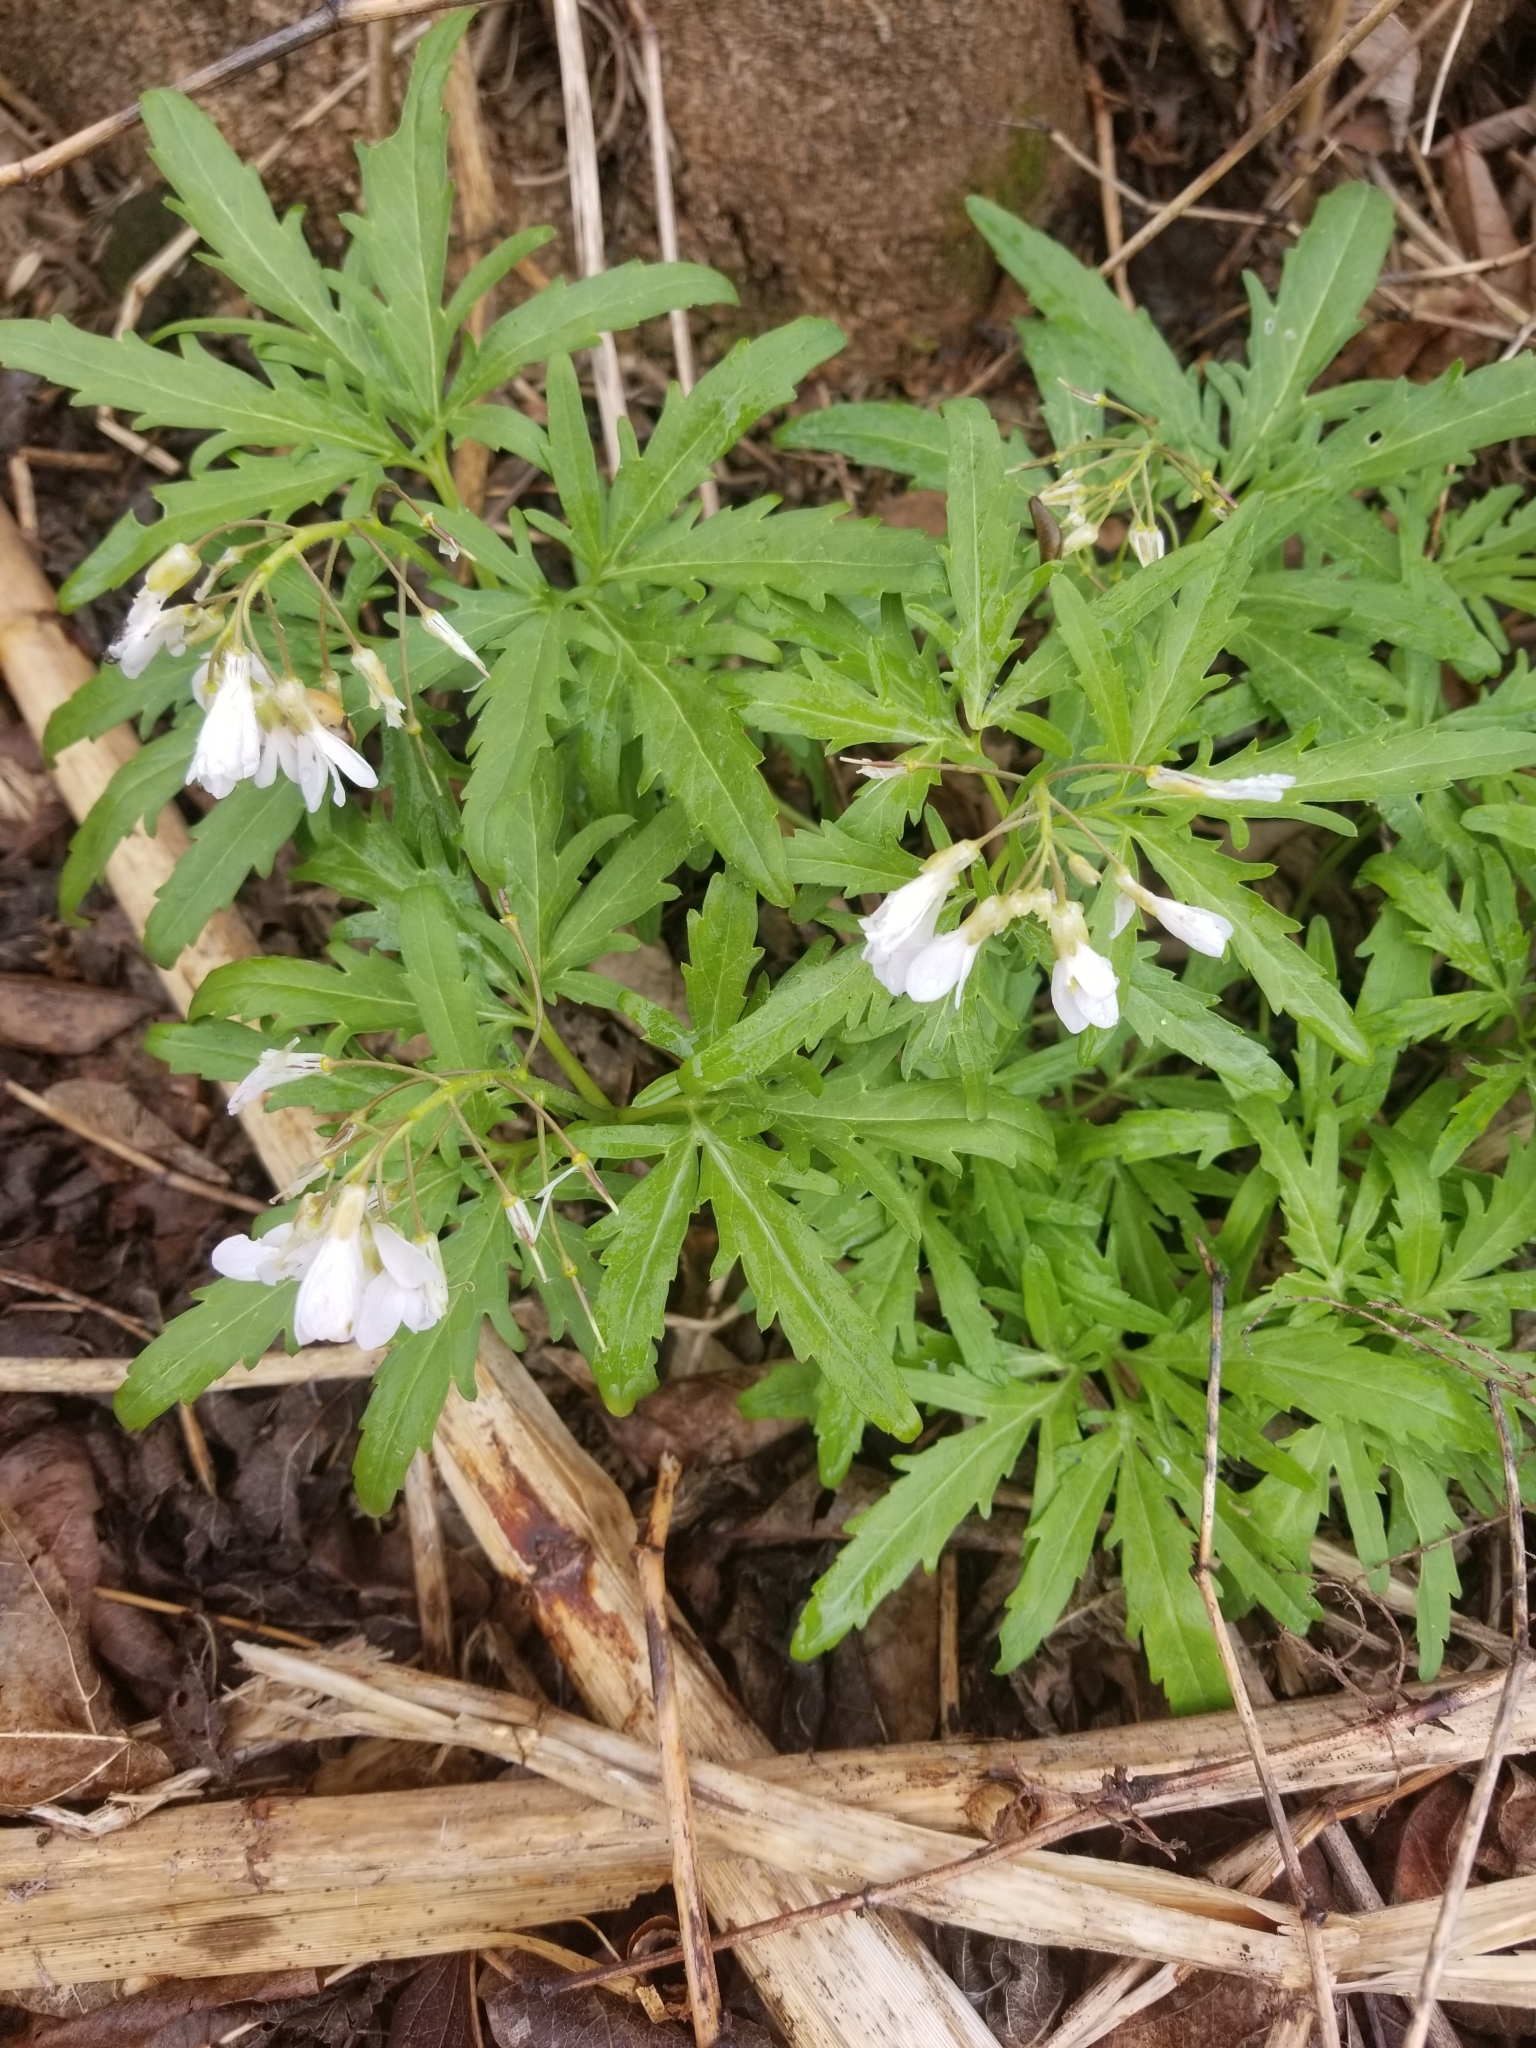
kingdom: Plantae
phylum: Tracheophyta
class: Magnoliopsida
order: Brassicales
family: Brassicaceae
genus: Cardamine
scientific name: Cardamine concatenata
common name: Cut-leaf toothcup
